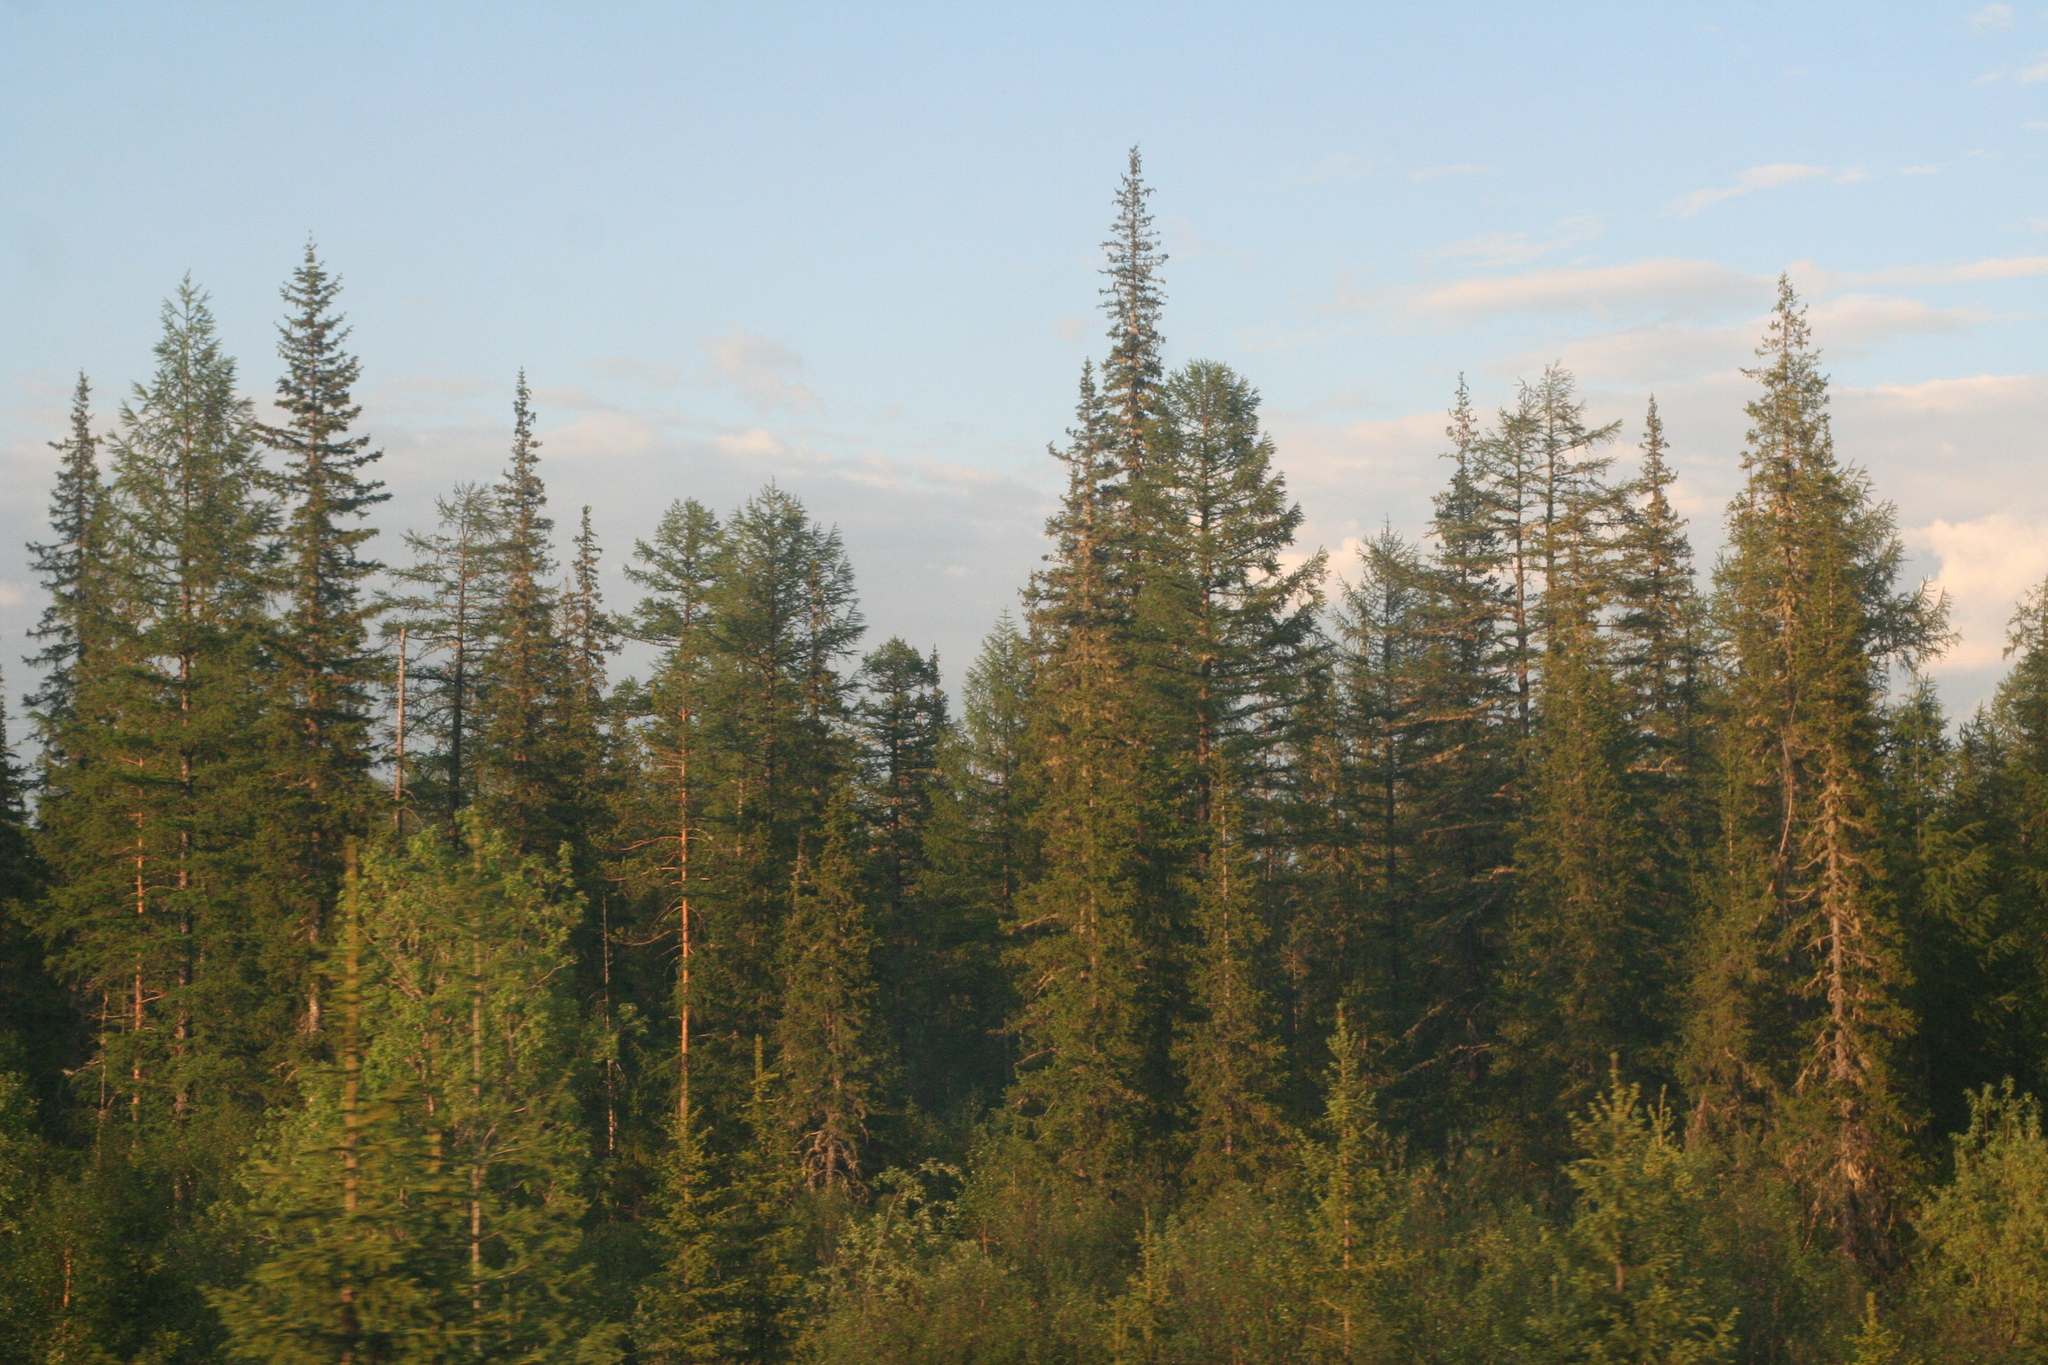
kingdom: Plantae
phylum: Tracheophyta
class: Pinopsida
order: Pinales
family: Pinaceae
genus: Picea
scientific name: Picea obovata
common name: Siberian spruce
